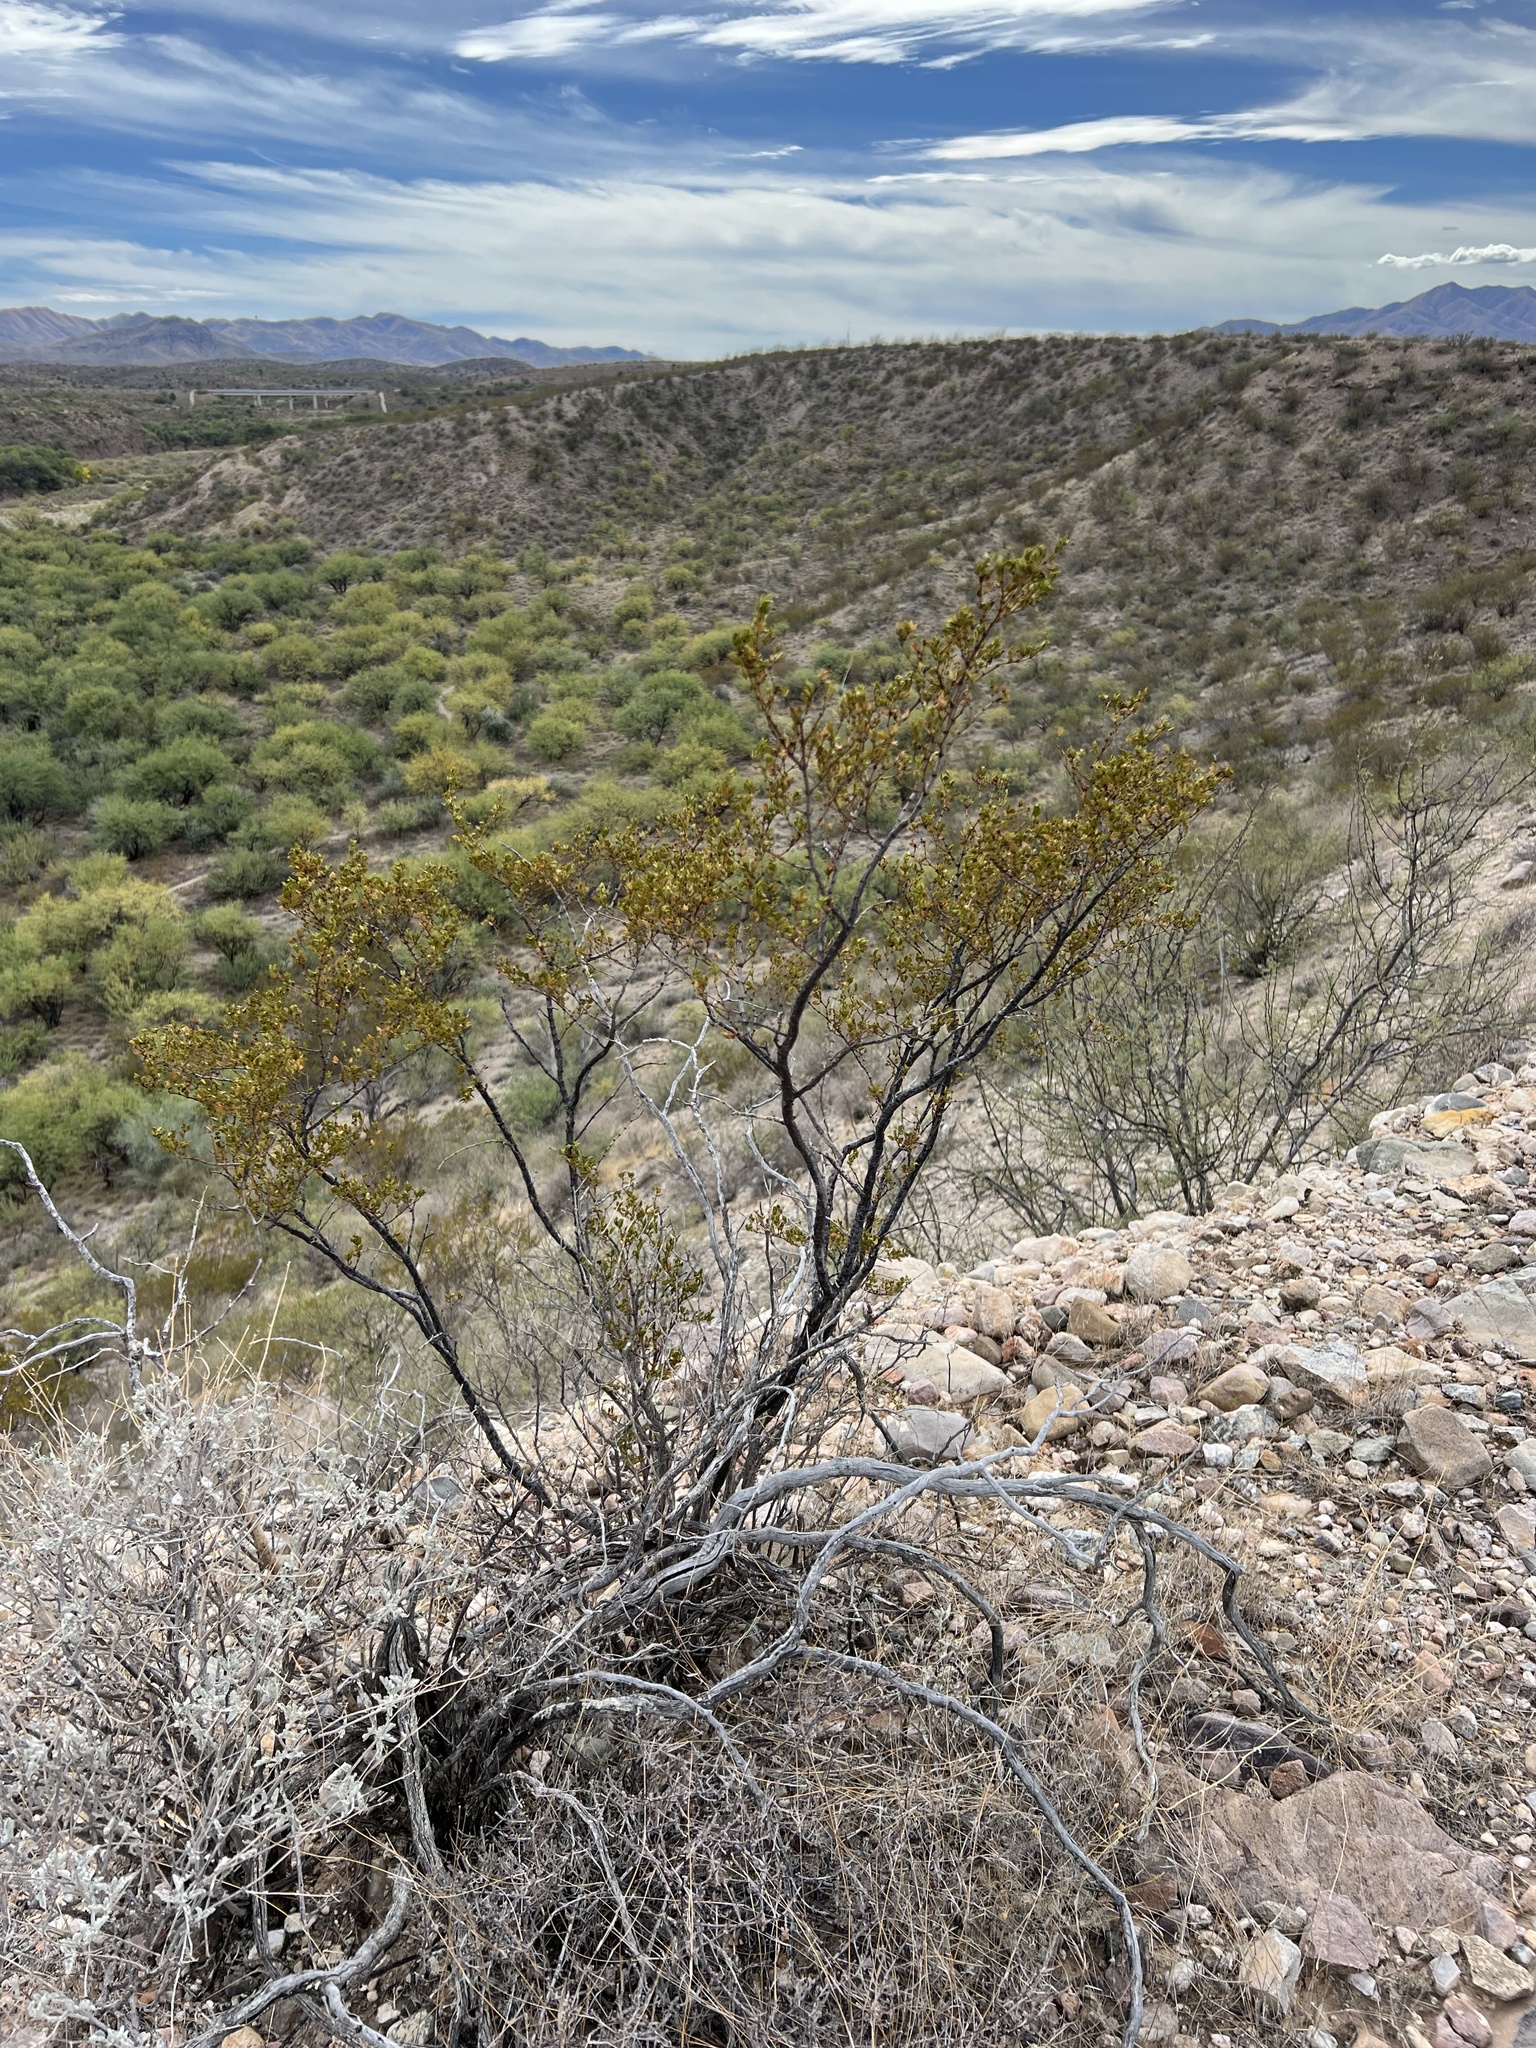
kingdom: Plantae
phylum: Tracheophyta
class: Magnoliopsida
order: Zygophyllales
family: Zygophyllaceae
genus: Larrea
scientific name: Larrea tridentata
